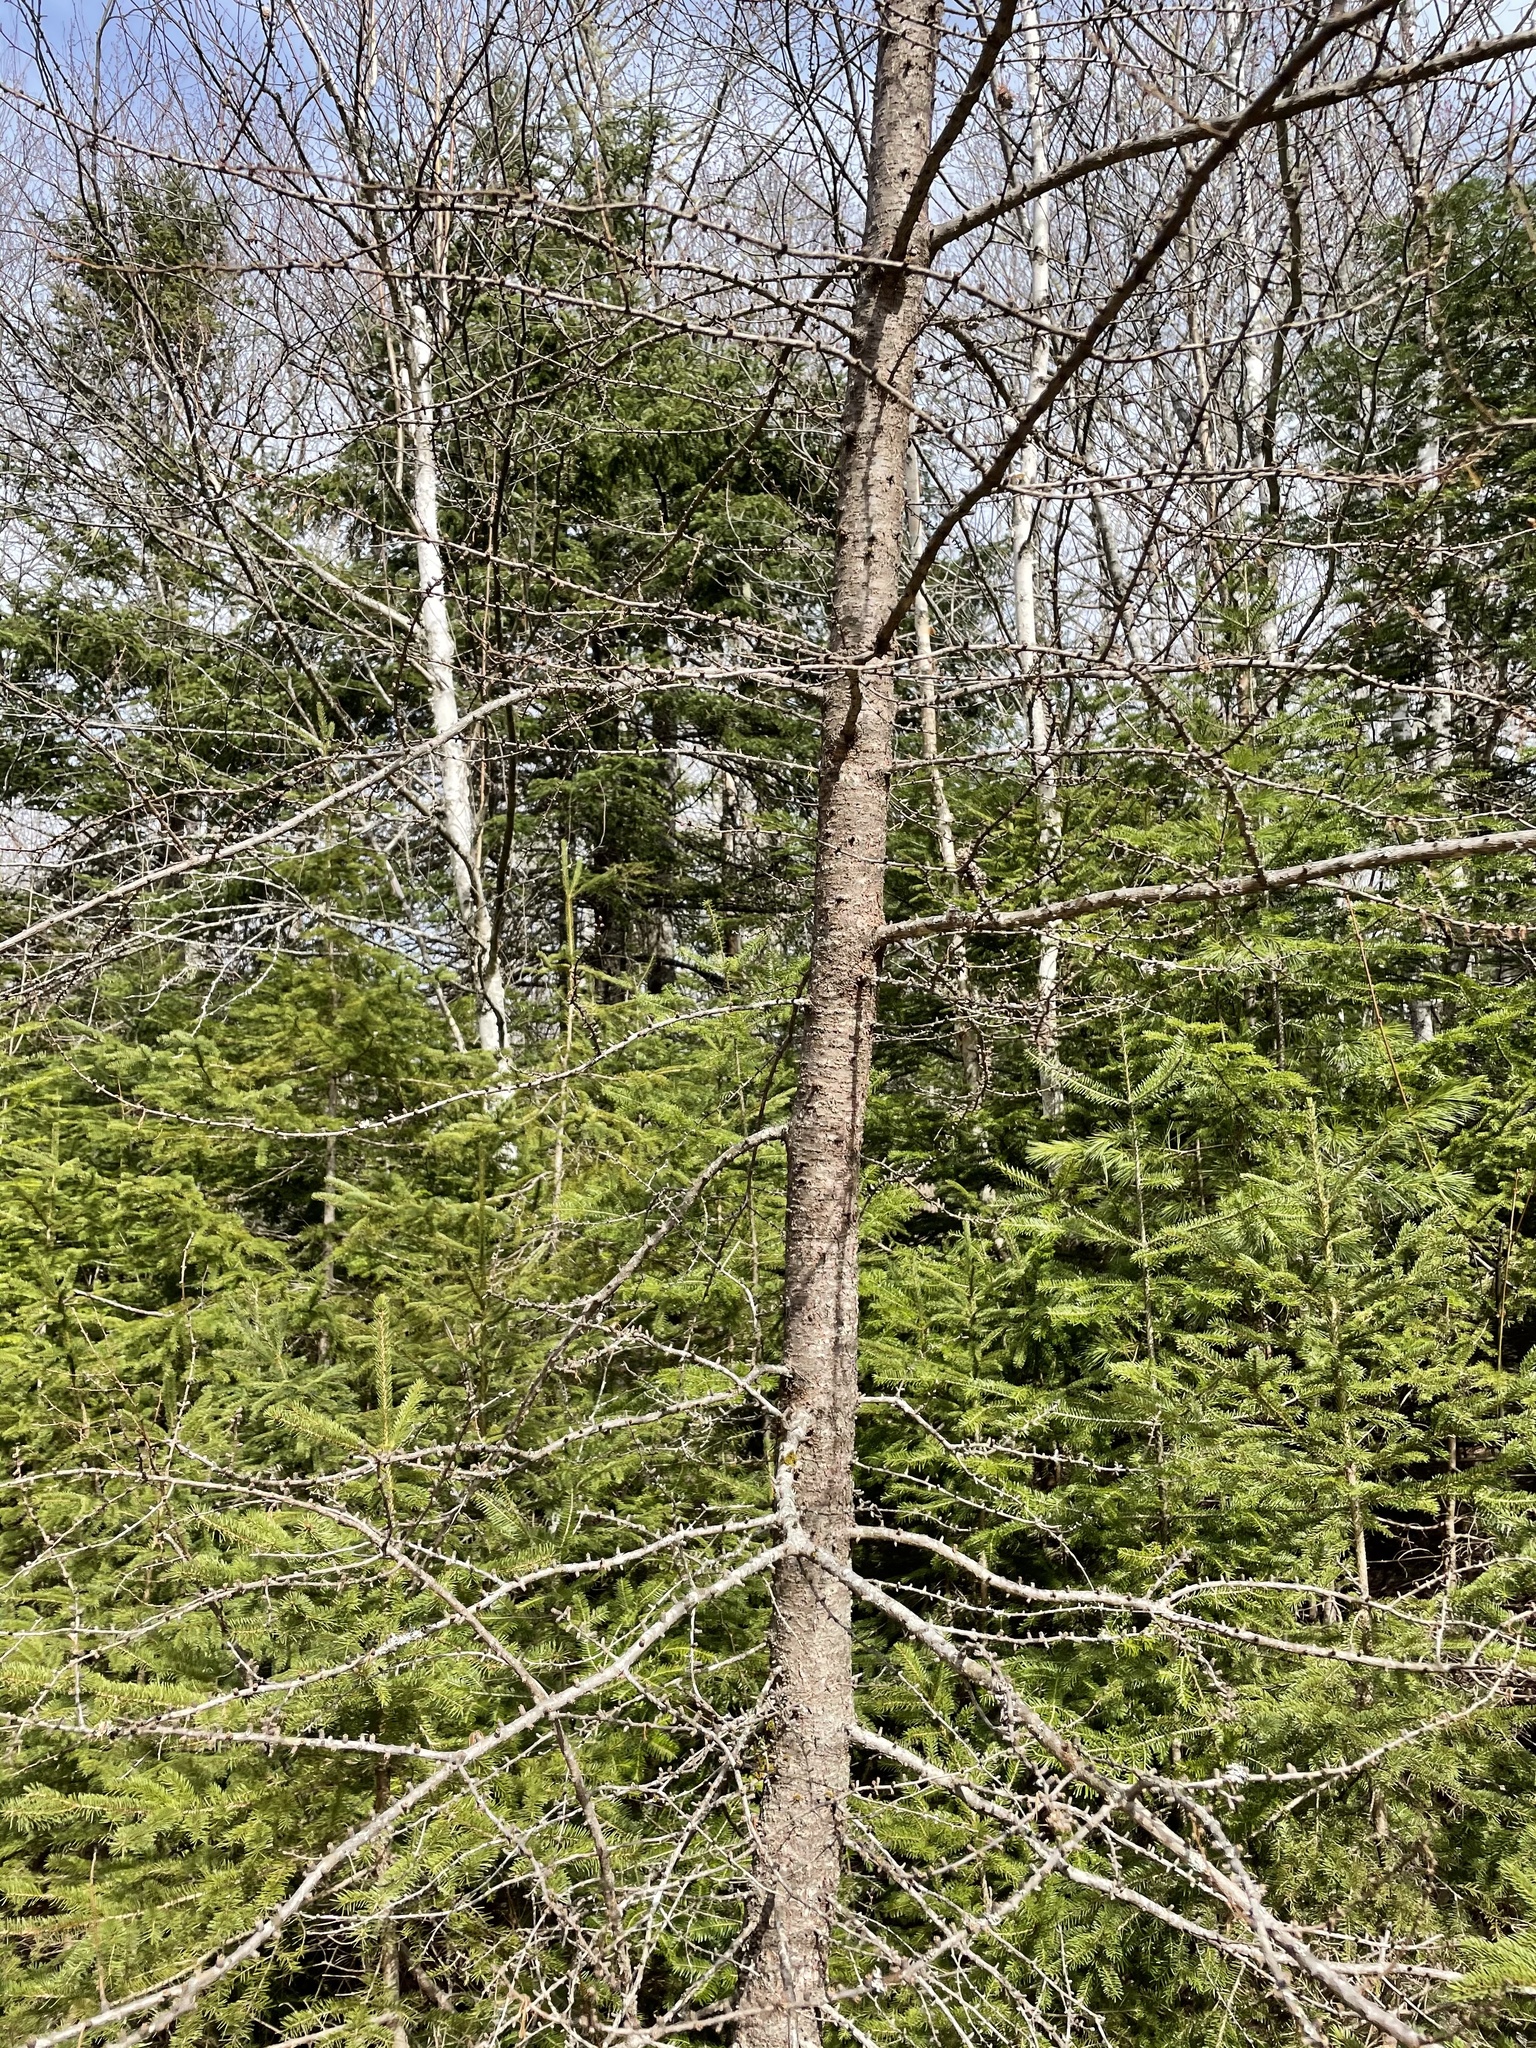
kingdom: Plantae
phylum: Tracheophyta
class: Pinopsida
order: Pinales
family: Pinaceae
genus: Larix
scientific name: Larix laricina
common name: American larch
